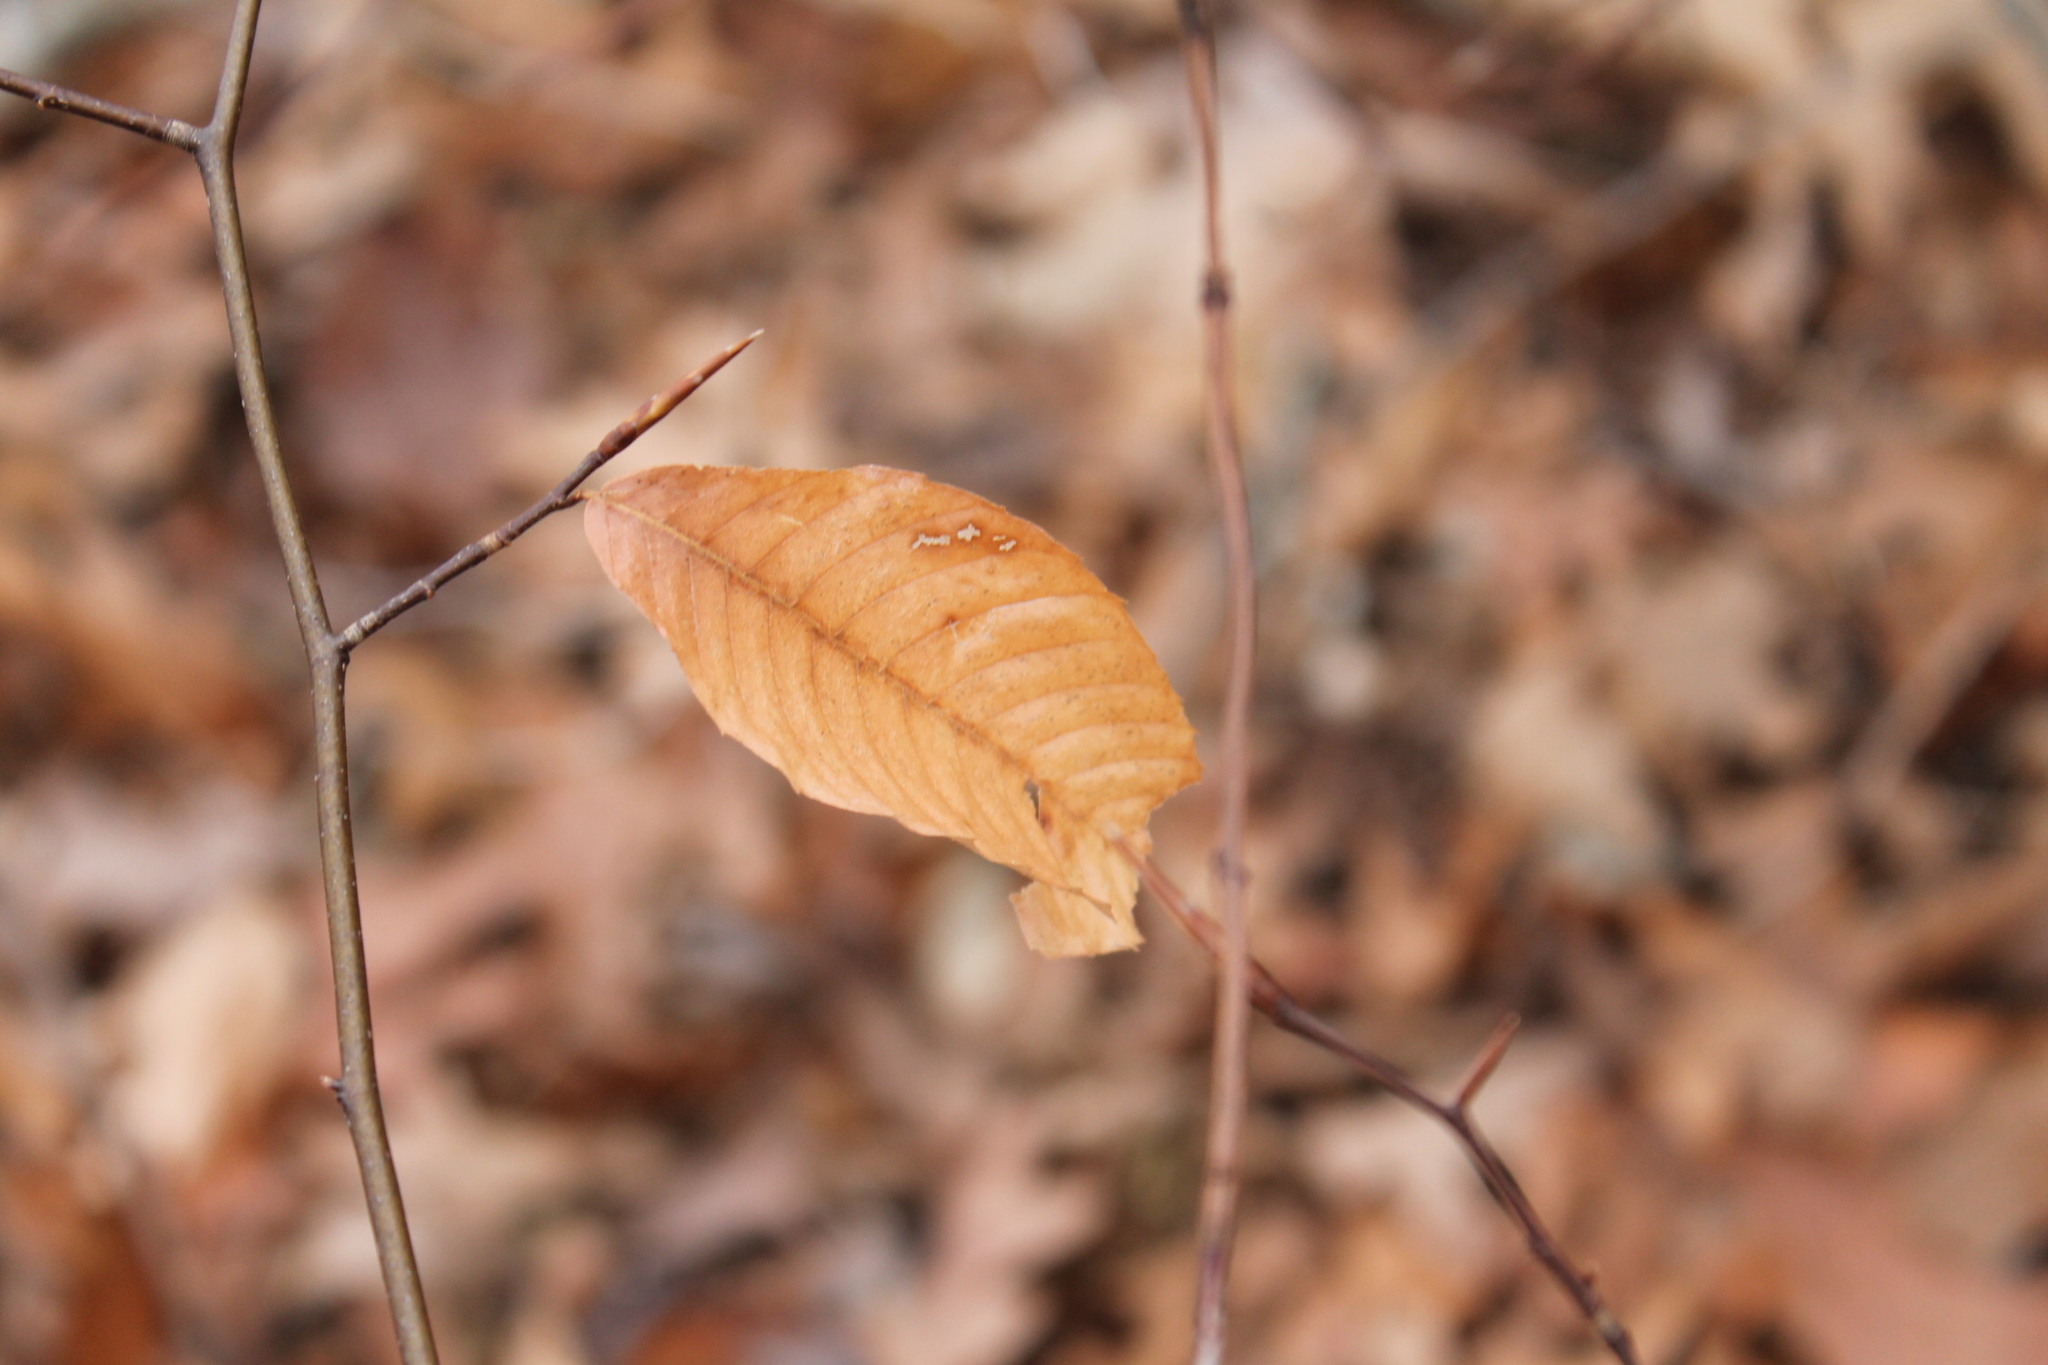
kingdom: Plantae
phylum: Tracheophyta
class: Magnoliopsida
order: Fagales
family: Fagaceae
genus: Fagus
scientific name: Fagus grandifolia
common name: American beech
